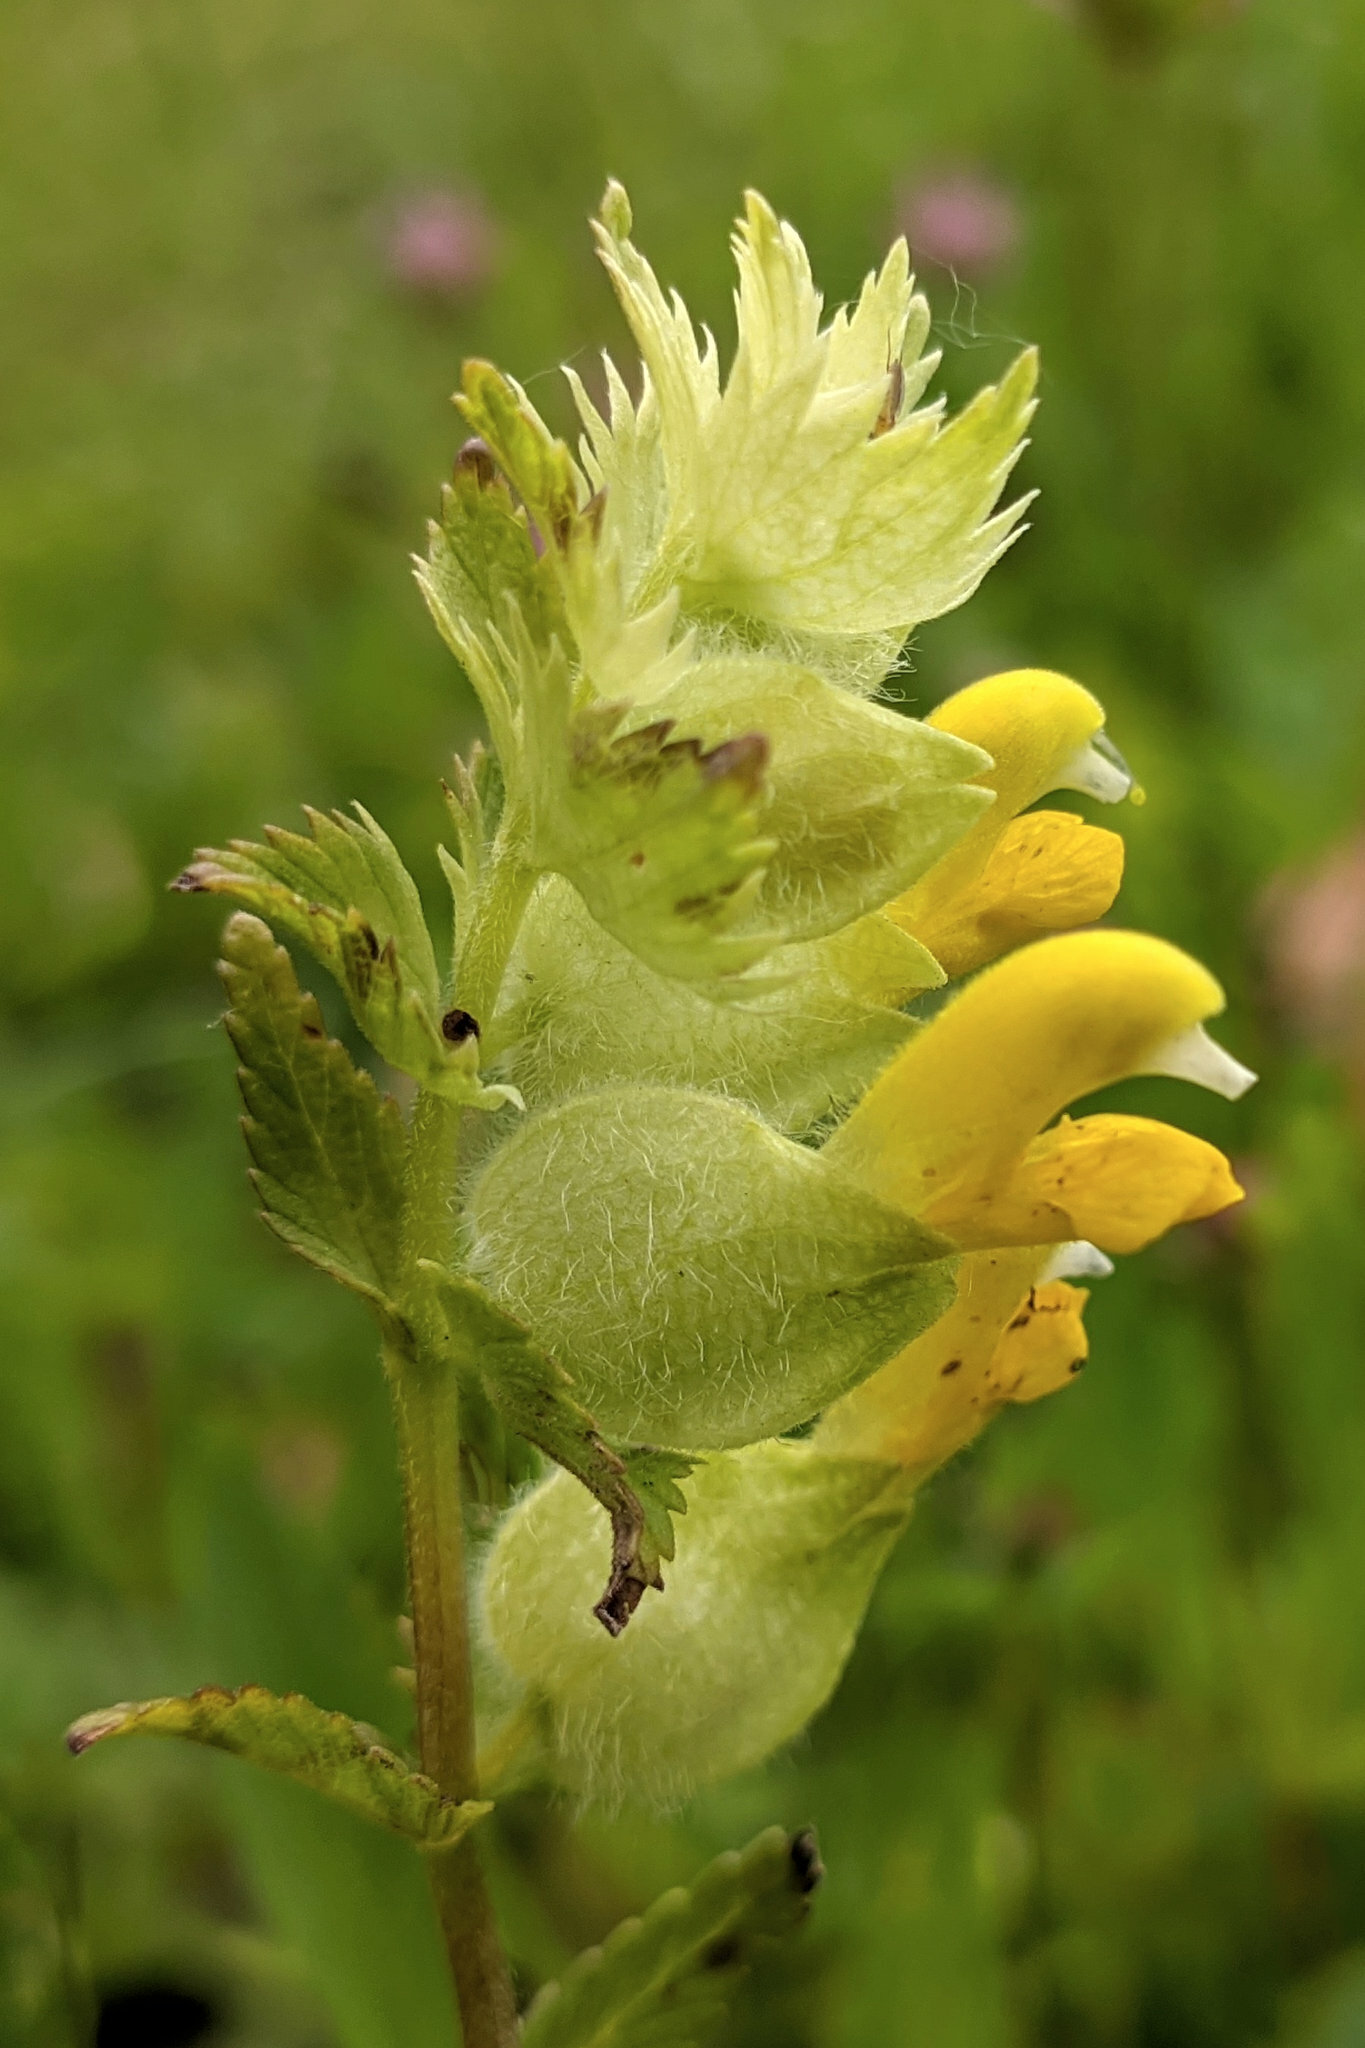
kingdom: Plantae
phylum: Tracheophyta
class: Magnoliopsida
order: Lamiales
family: Orobanchaceae
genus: Rhinanthus
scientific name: Rhinanthus alectorolophus
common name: Greater yellow-rattle
